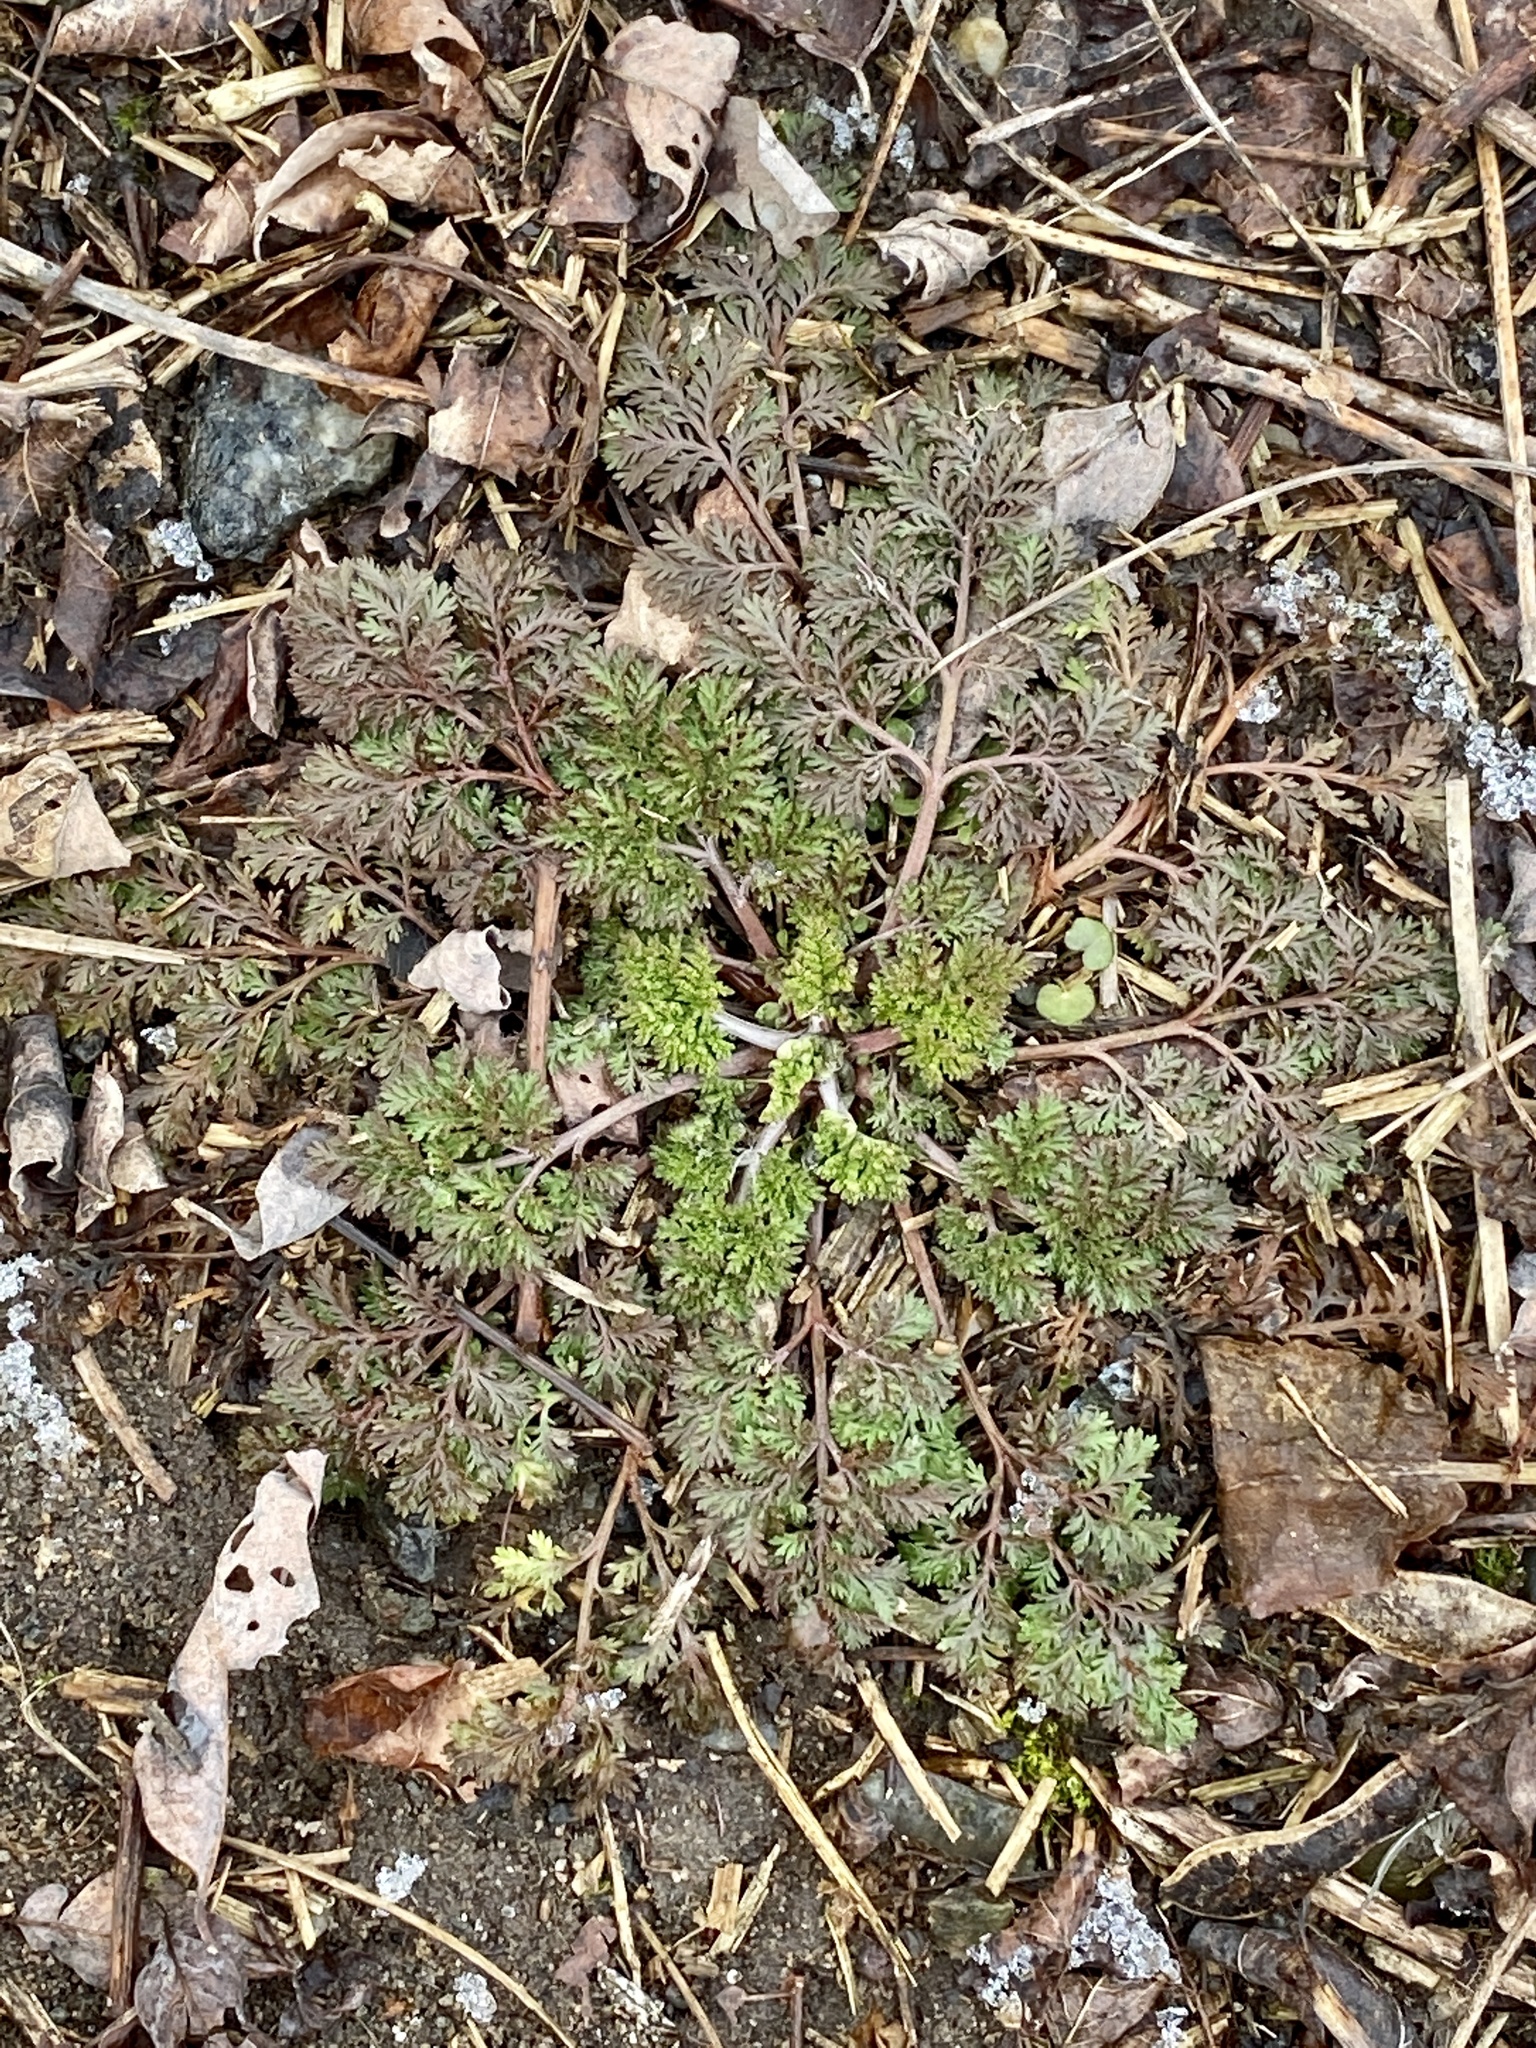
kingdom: Plantae
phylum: Tracheophyta
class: Magnoliopsida
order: Apiales
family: Apiaceae
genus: Daucus
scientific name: Daucus carota
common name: Wild carrot
